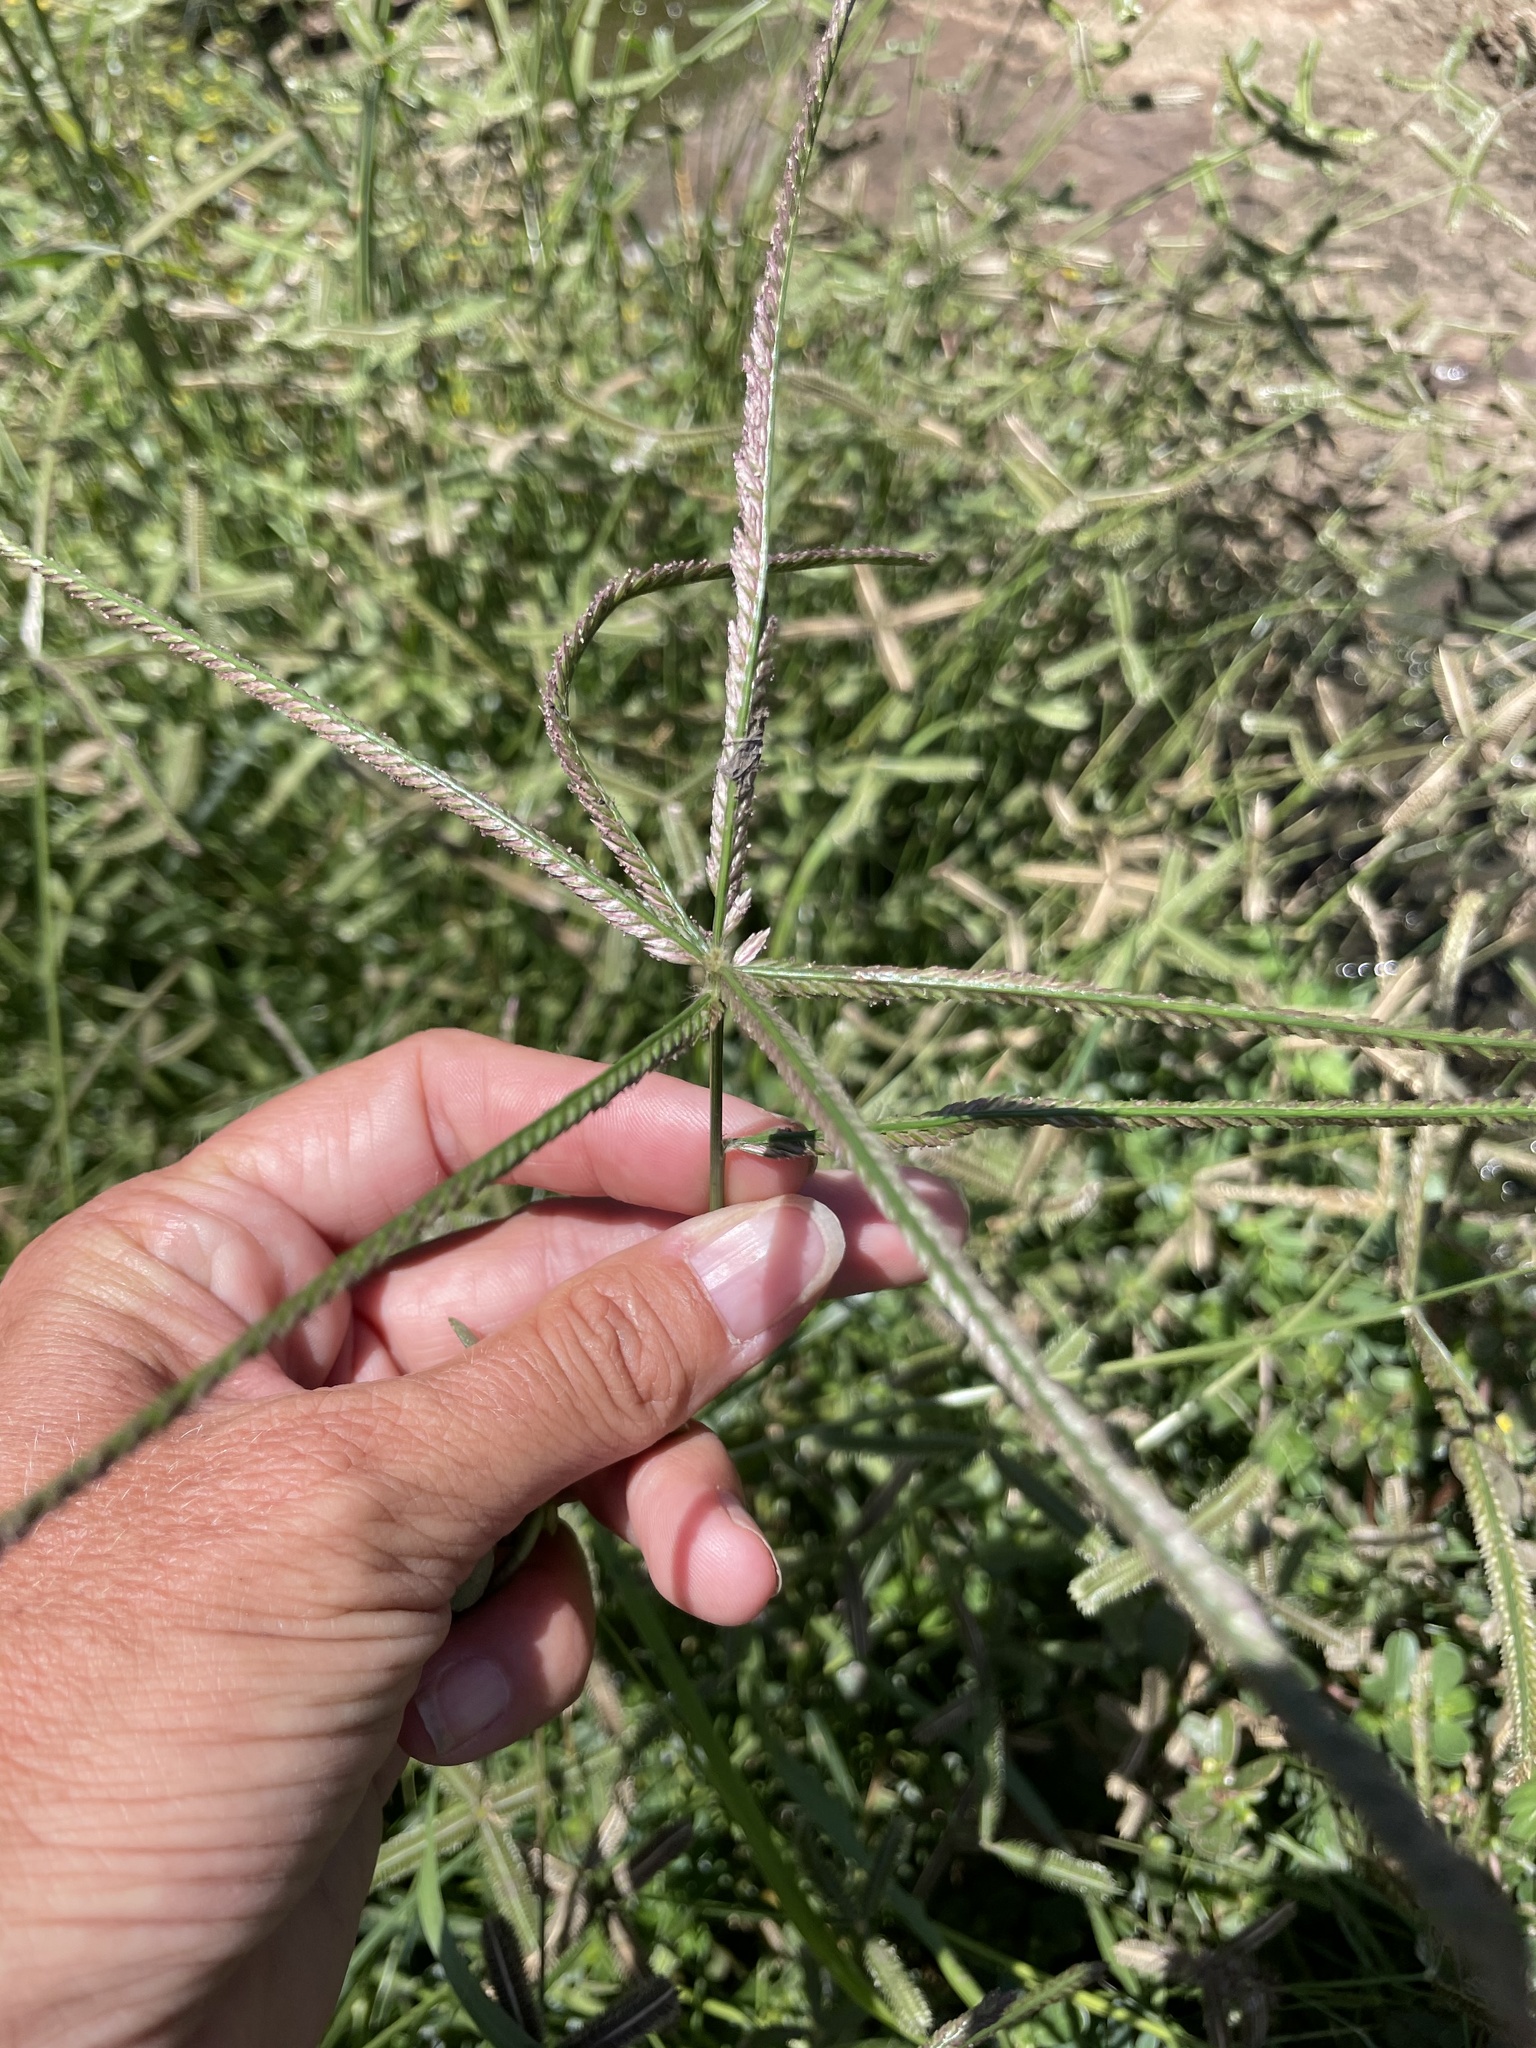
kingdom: Plantae
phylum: Tracheophyta
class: Liliopsida
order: Poales
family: Poaceae
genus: Eleusine
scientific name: Eleusine indica
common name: Yard-grass
